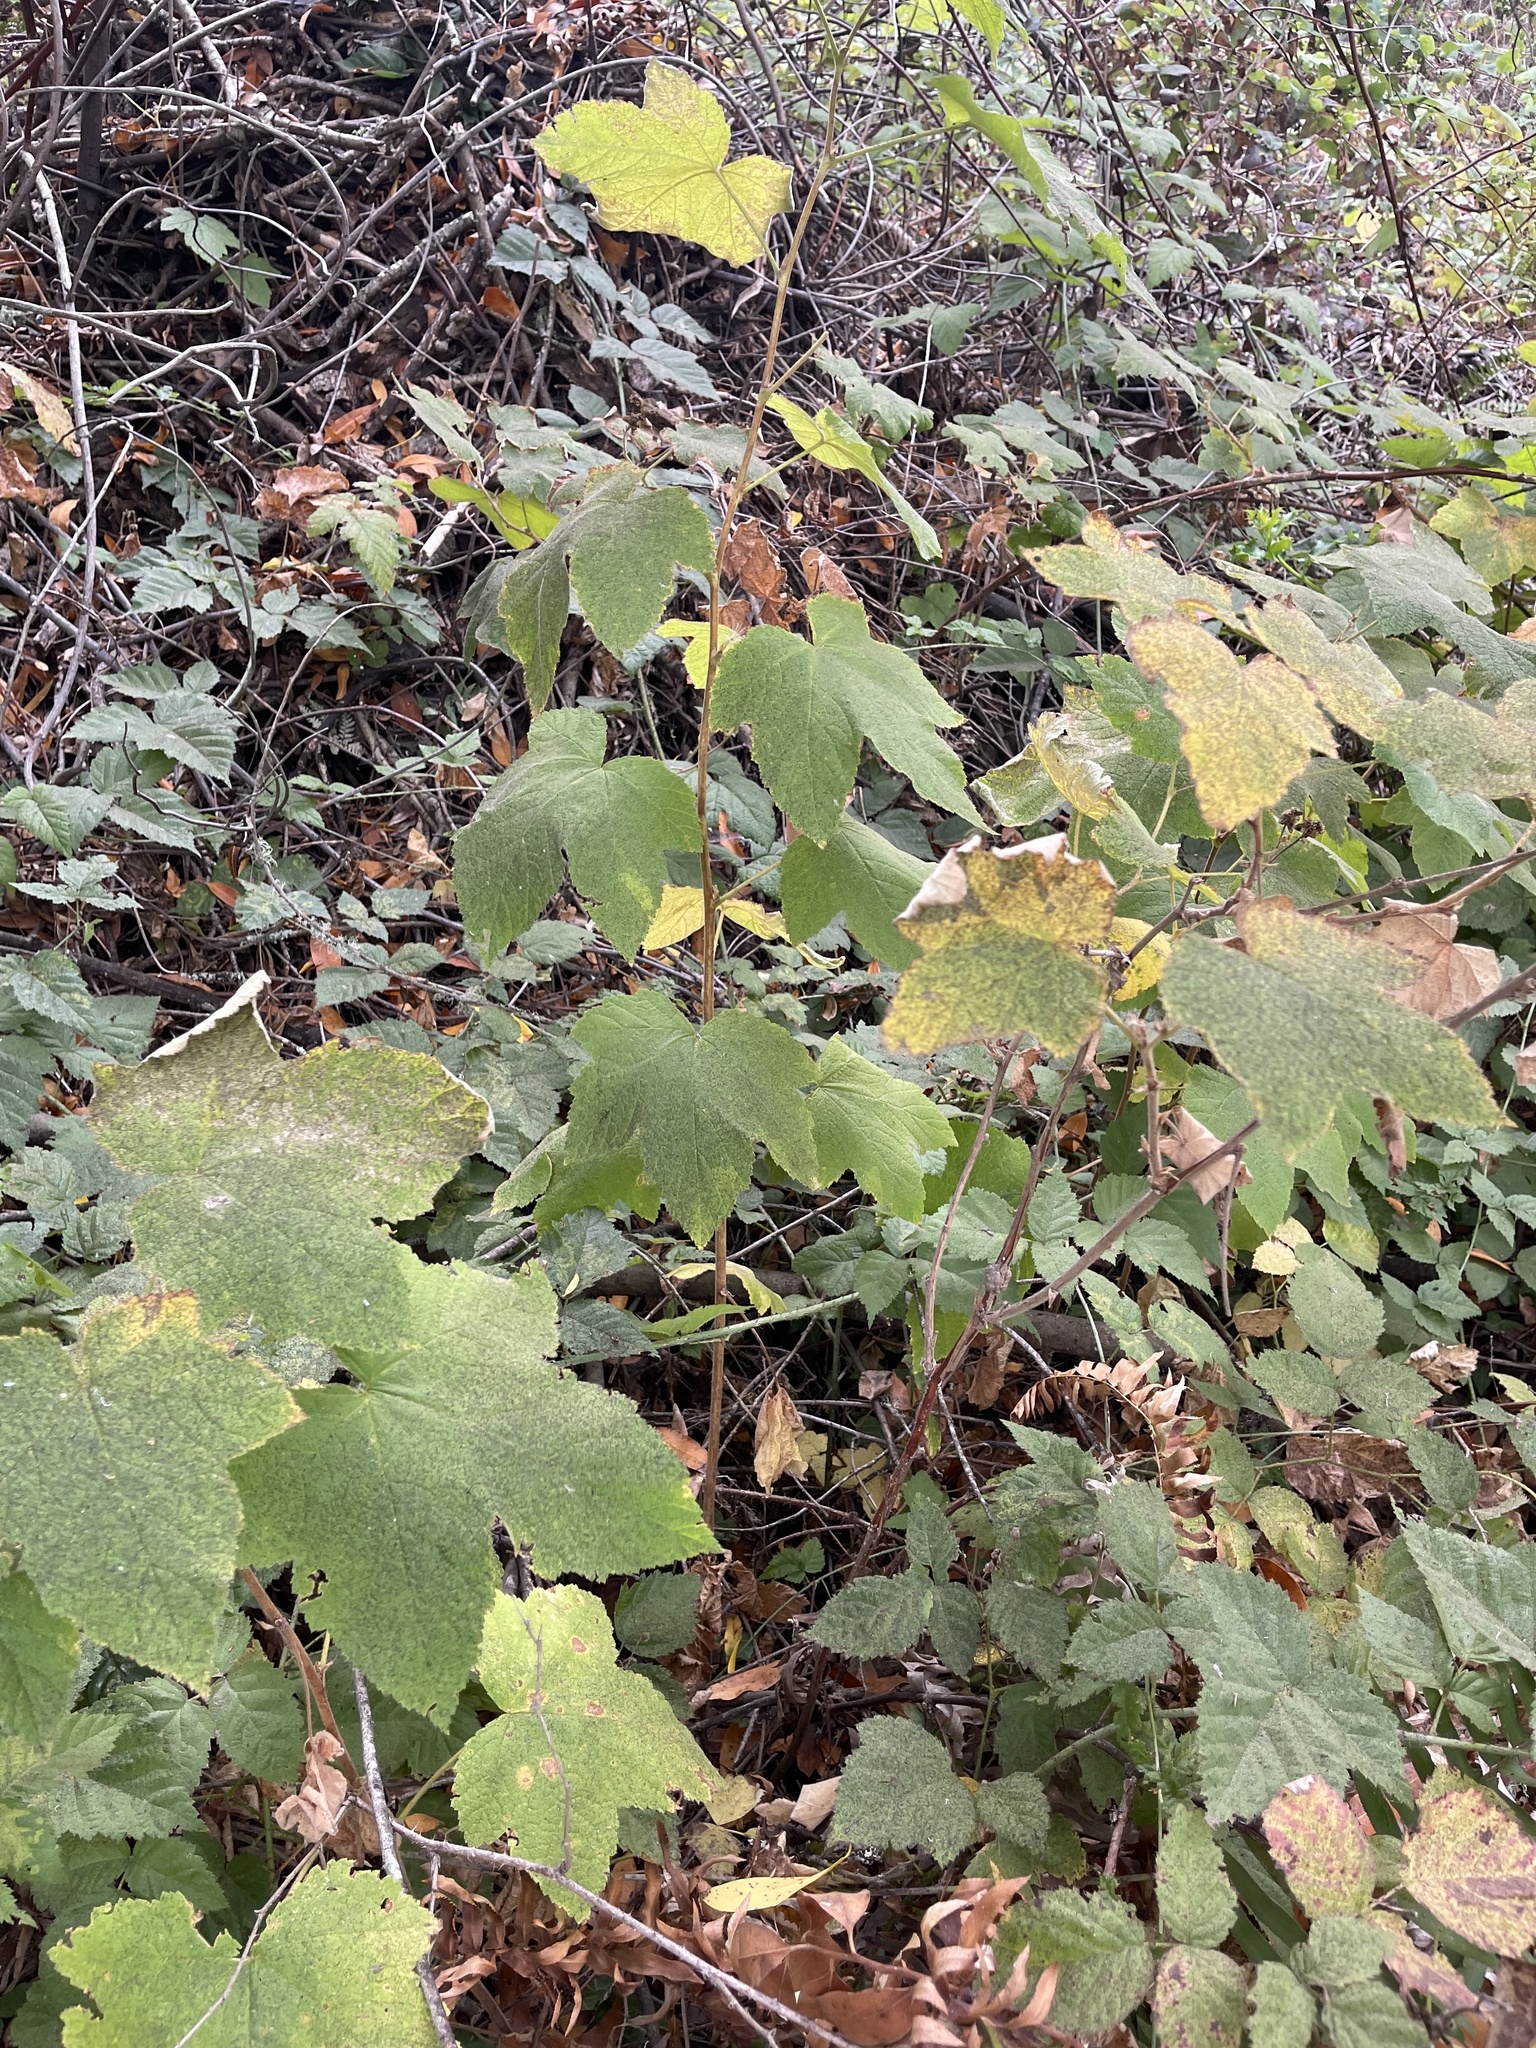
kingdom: Plantae
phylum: Tracheophyta
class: Magnoliopsida
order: Rosales
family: Rosaceae
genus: Rubus
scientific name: Rubus parviflorus
